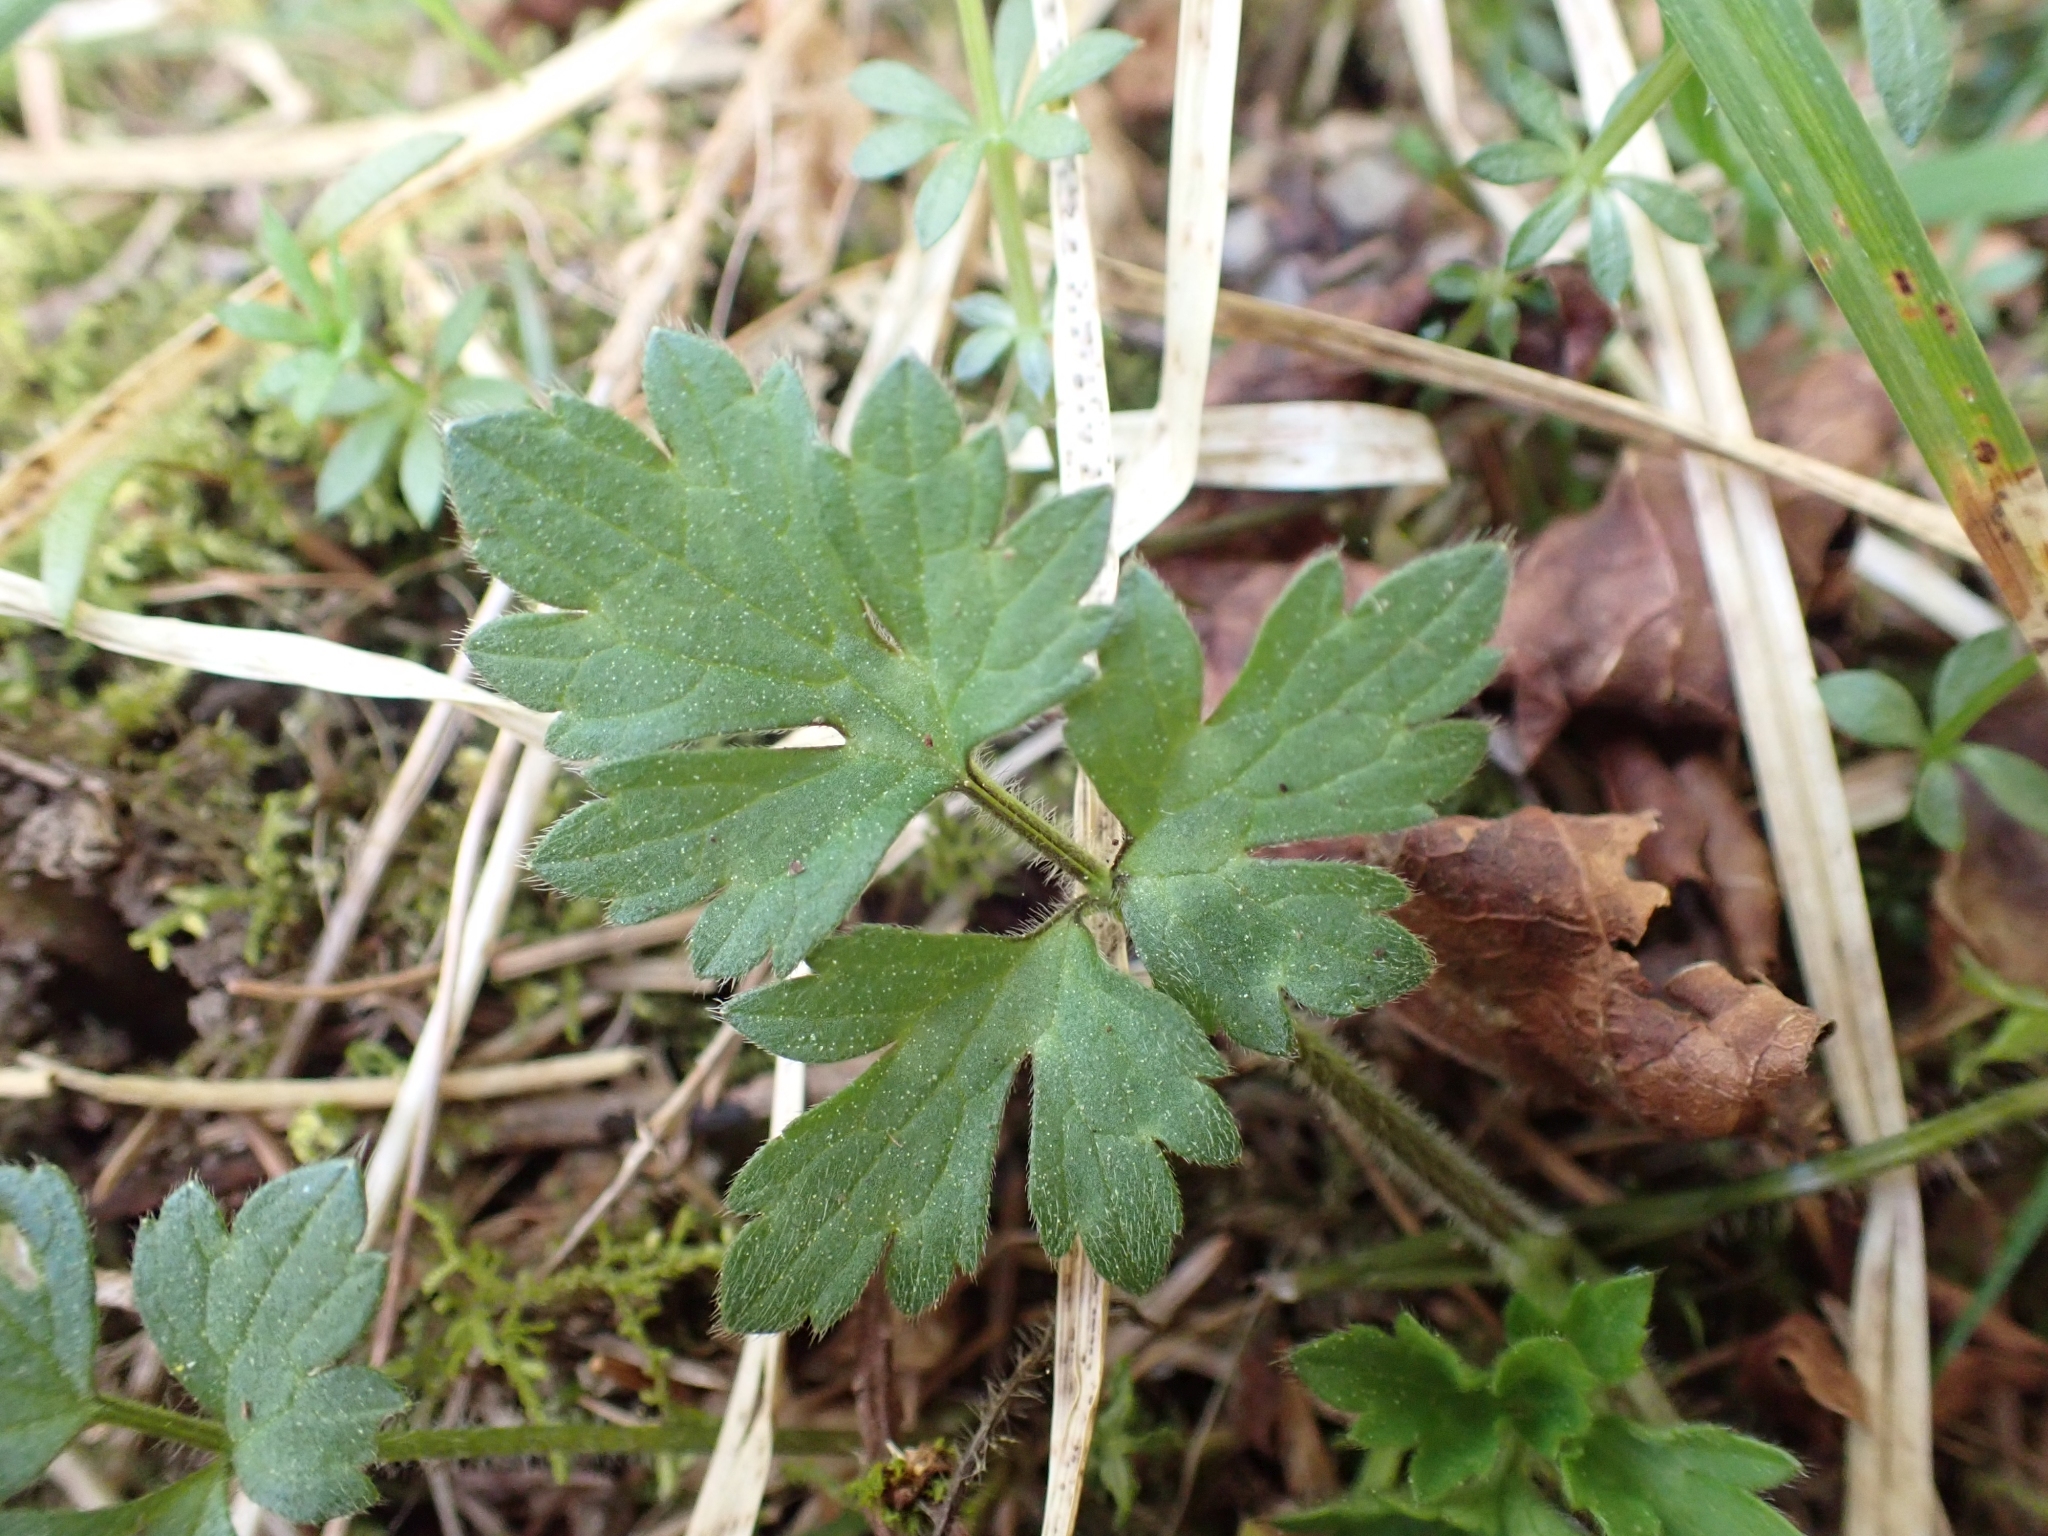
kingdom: Plantae
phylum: Tracheophyta
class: Magnoliopsida
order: Ranunculales
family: Ranunculaceae
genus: Ranunculus
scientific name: Ranunculus repens
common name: Creeping buttercup
